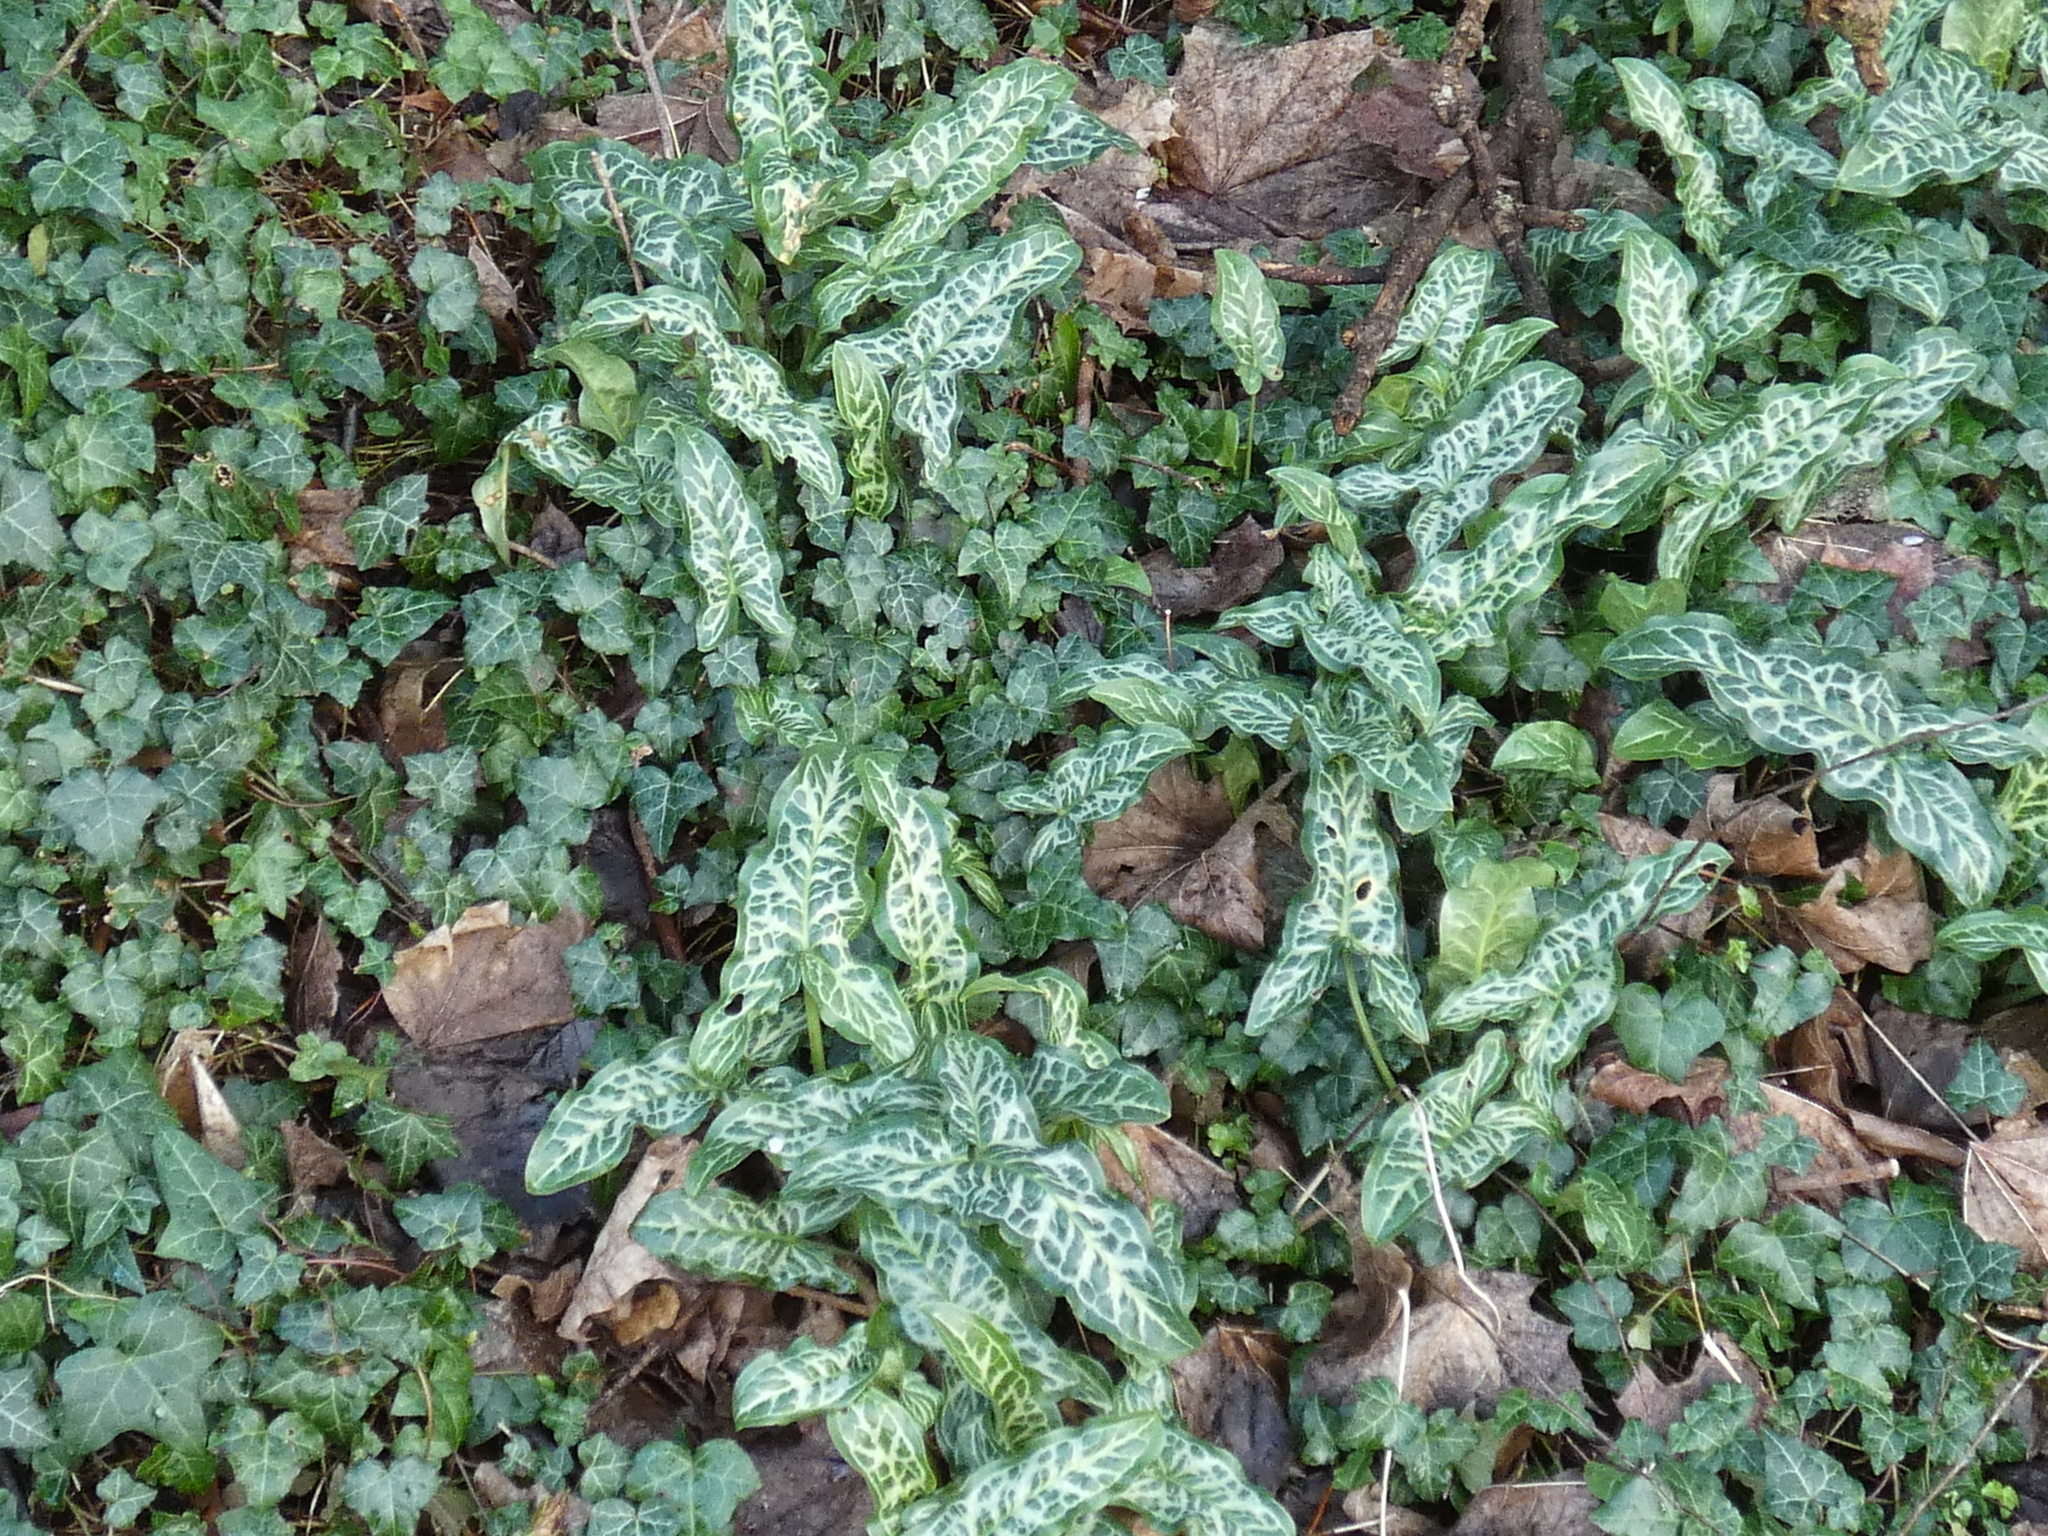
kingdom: Plantae
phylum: Tracheophyta
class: Liliopsida
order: Alismatales
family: Araceae
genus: Arum
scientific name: Arum italicum
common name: Italian lords-and-ladies
